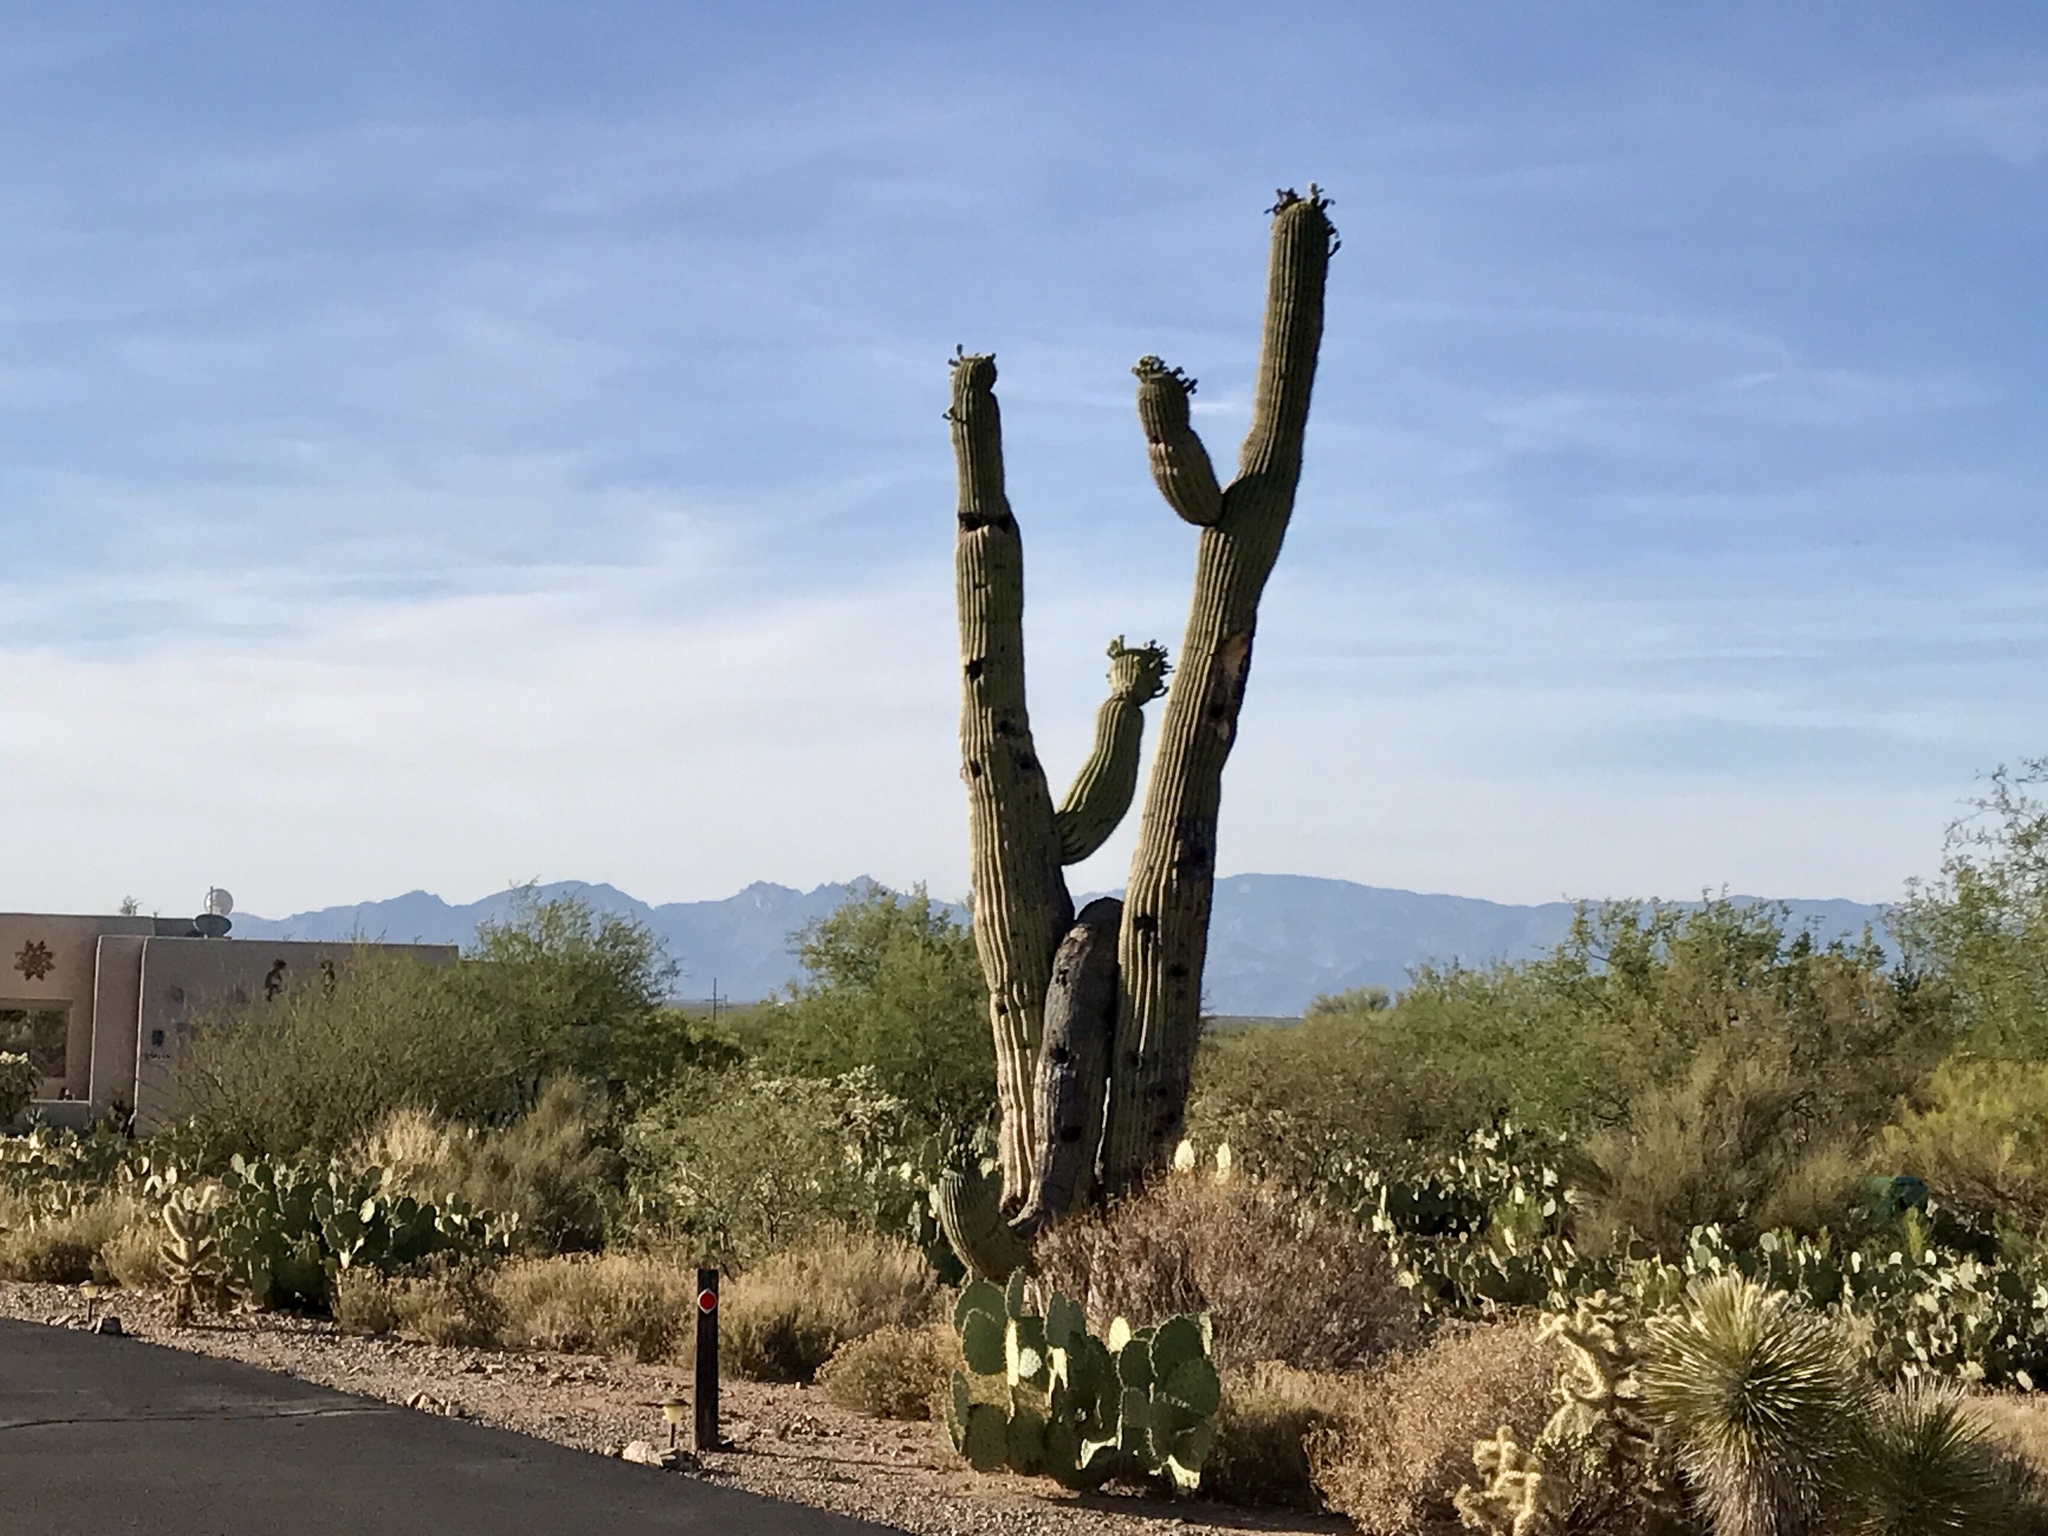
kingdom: Plantae
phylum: Tracheophyta
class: Magnoliopsida
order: Caryophyllales
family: Cactaceae
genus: Carnegiea
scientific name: Carnegiea gigantea
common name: Saguaro
